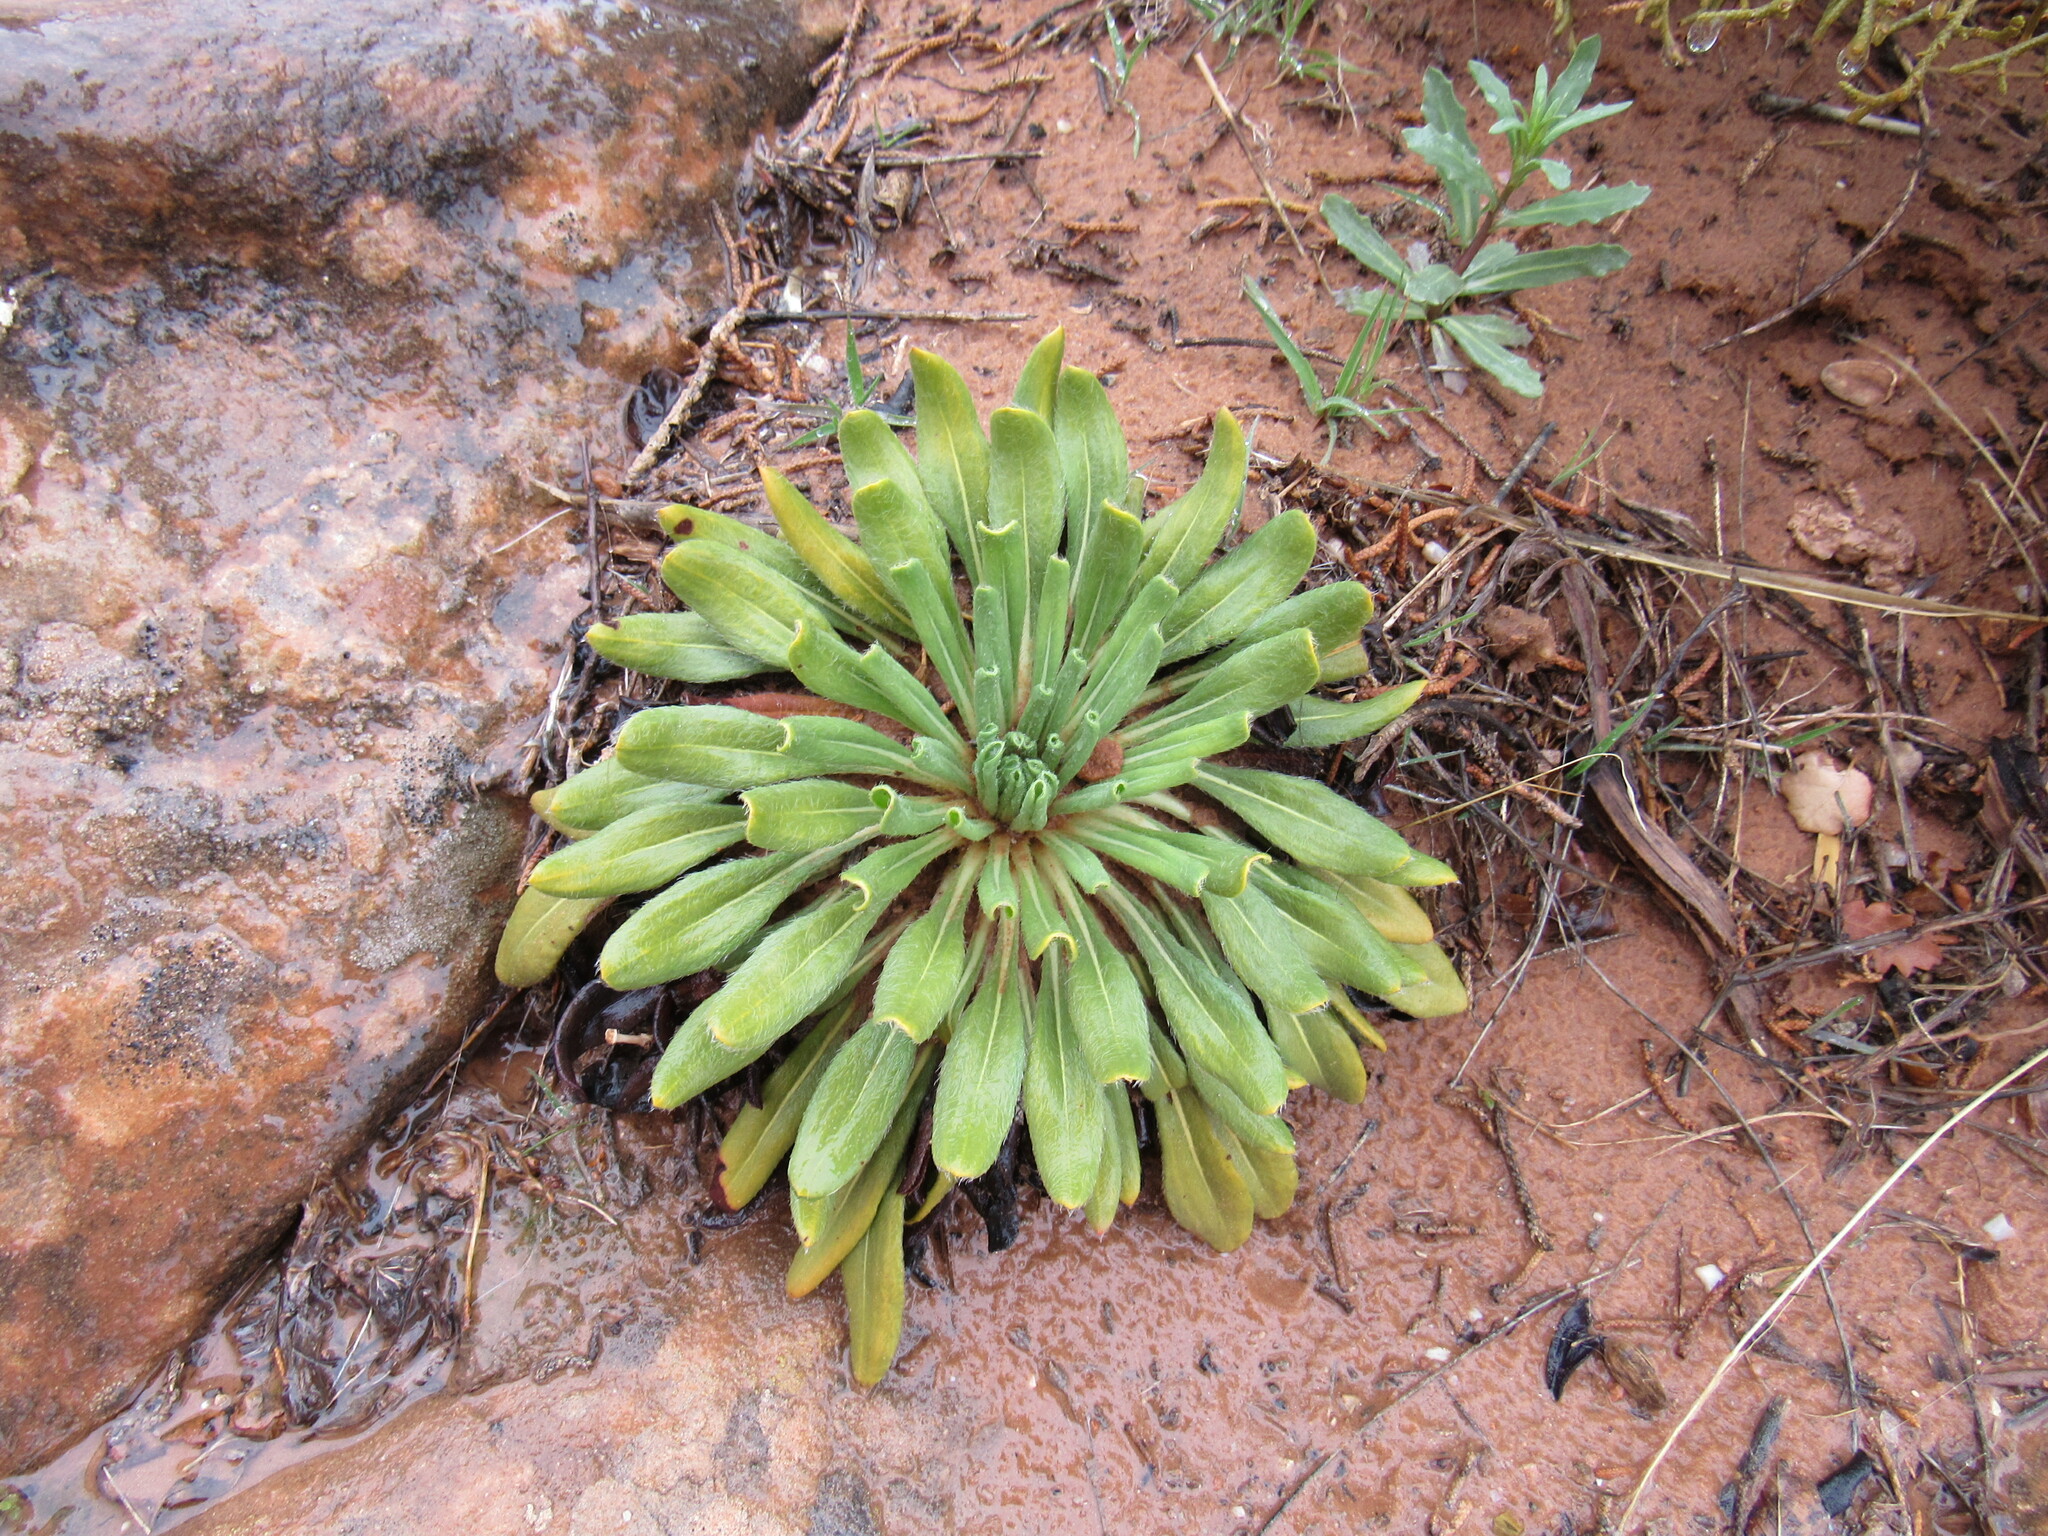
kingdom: Plantae
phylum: Tracheophyta
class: Magnoliopsida
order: Caryophyllales
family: Polygonaceae
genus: Eriogonum
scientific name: Eriogonum alatum
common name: Winged eriogonum
